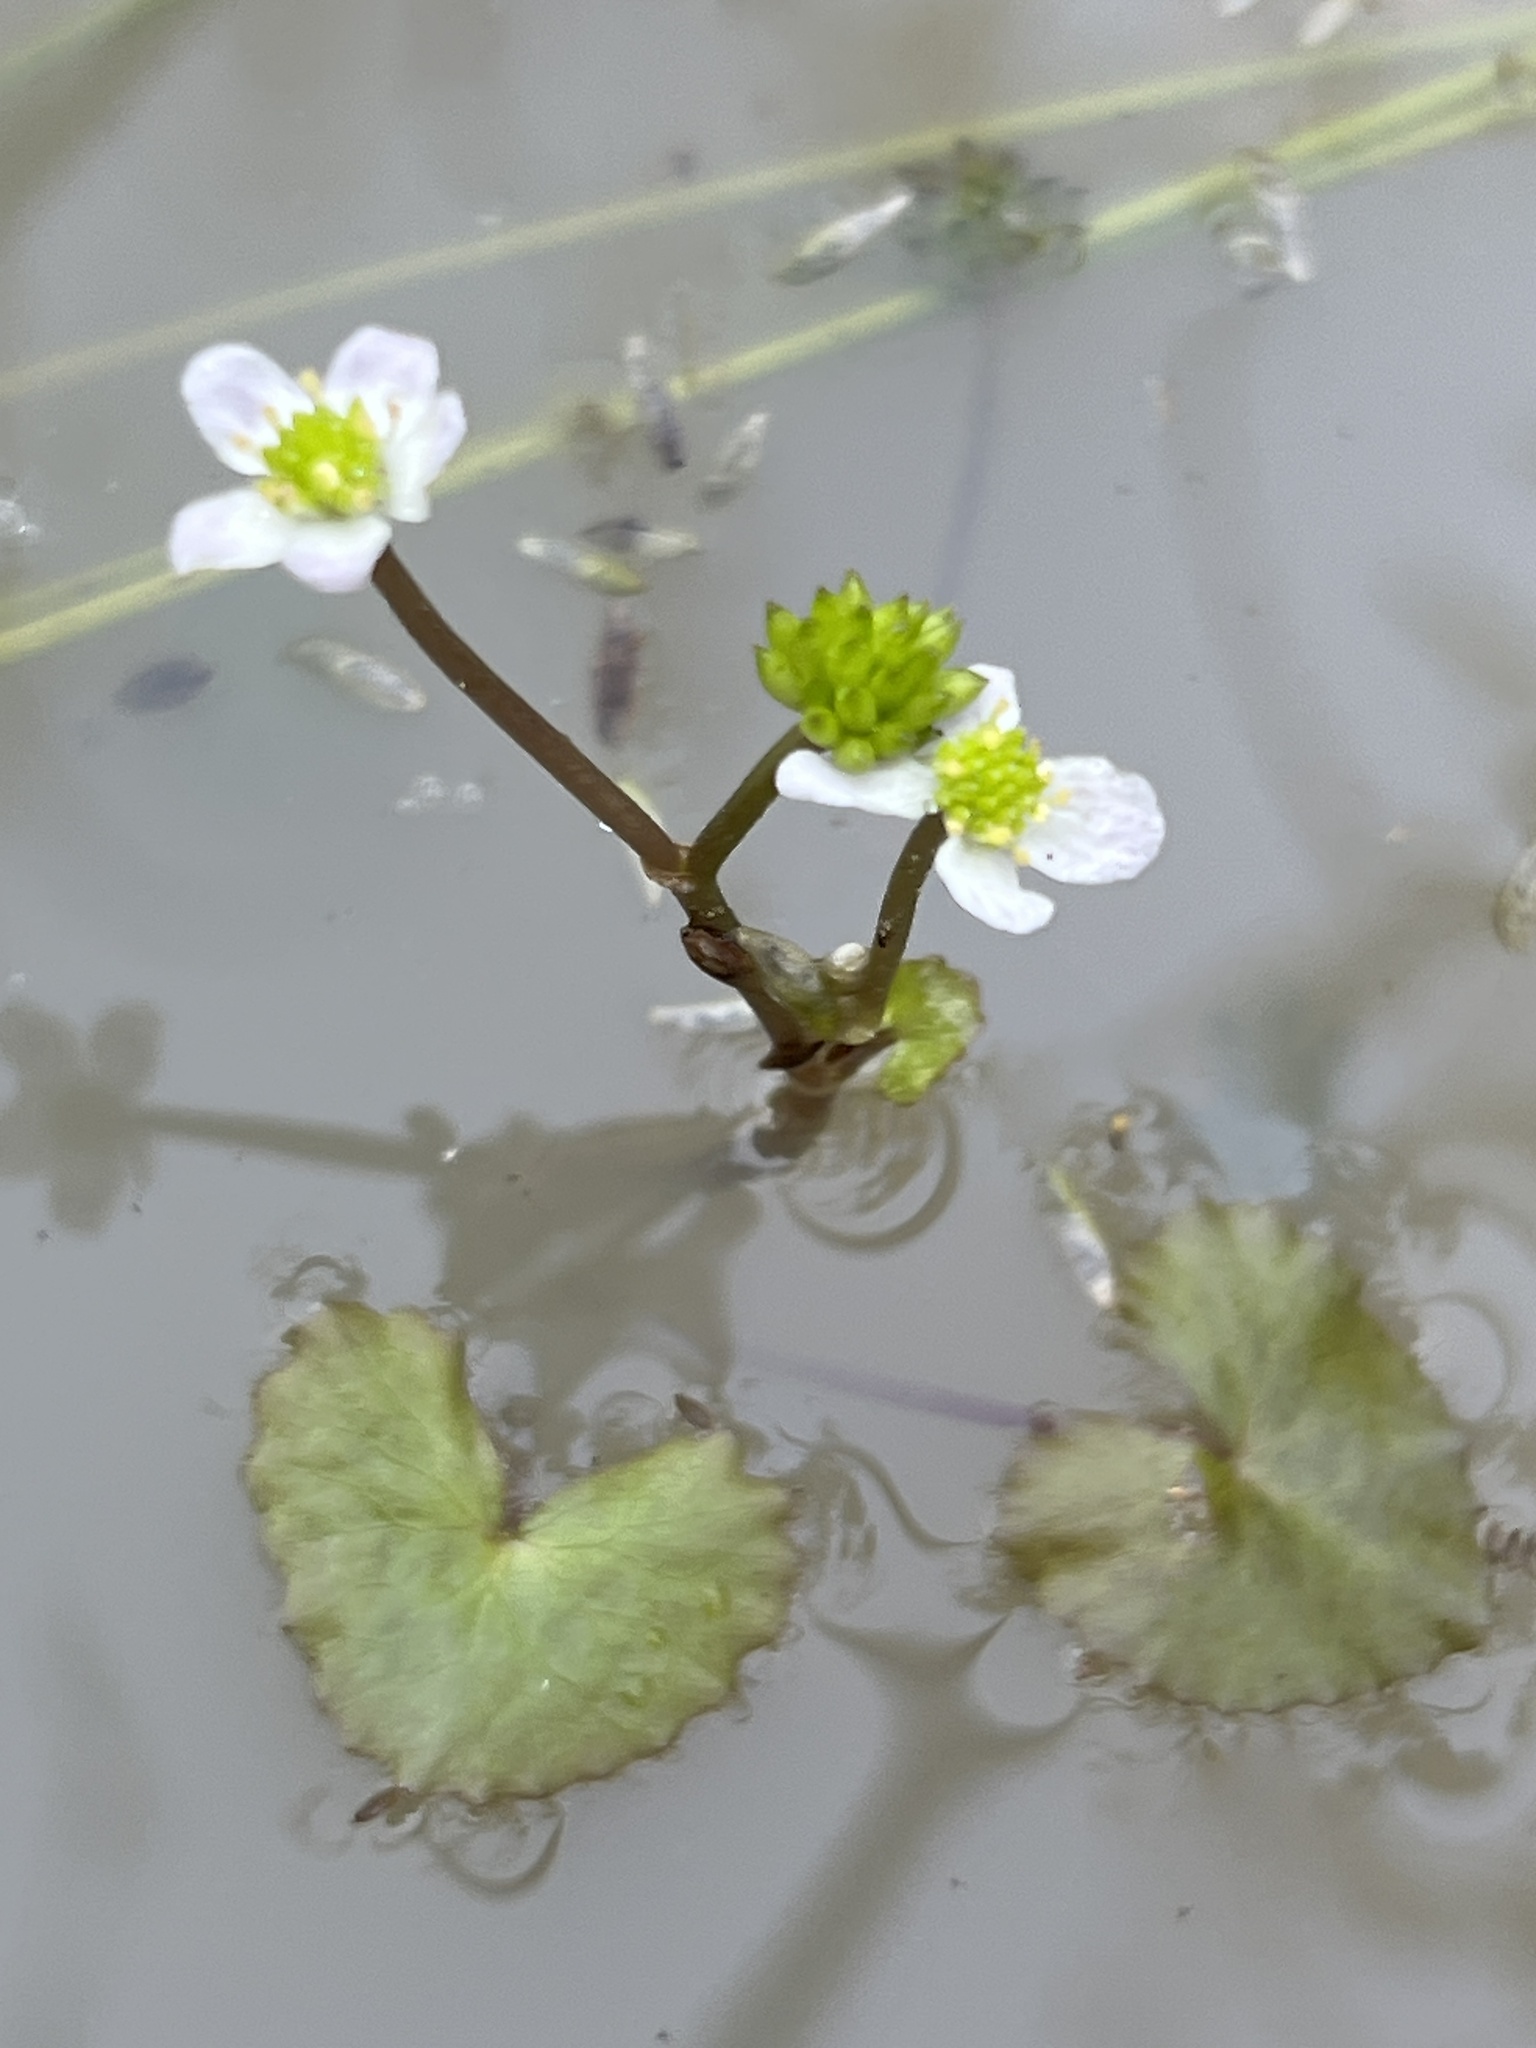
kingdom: Plantae
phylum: Tracheophyta
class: Magnoliopsida
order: Ranunculales
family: Ranunculaceae
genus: Caltha
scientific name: Caltha natans
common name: Floating marsh marigold
